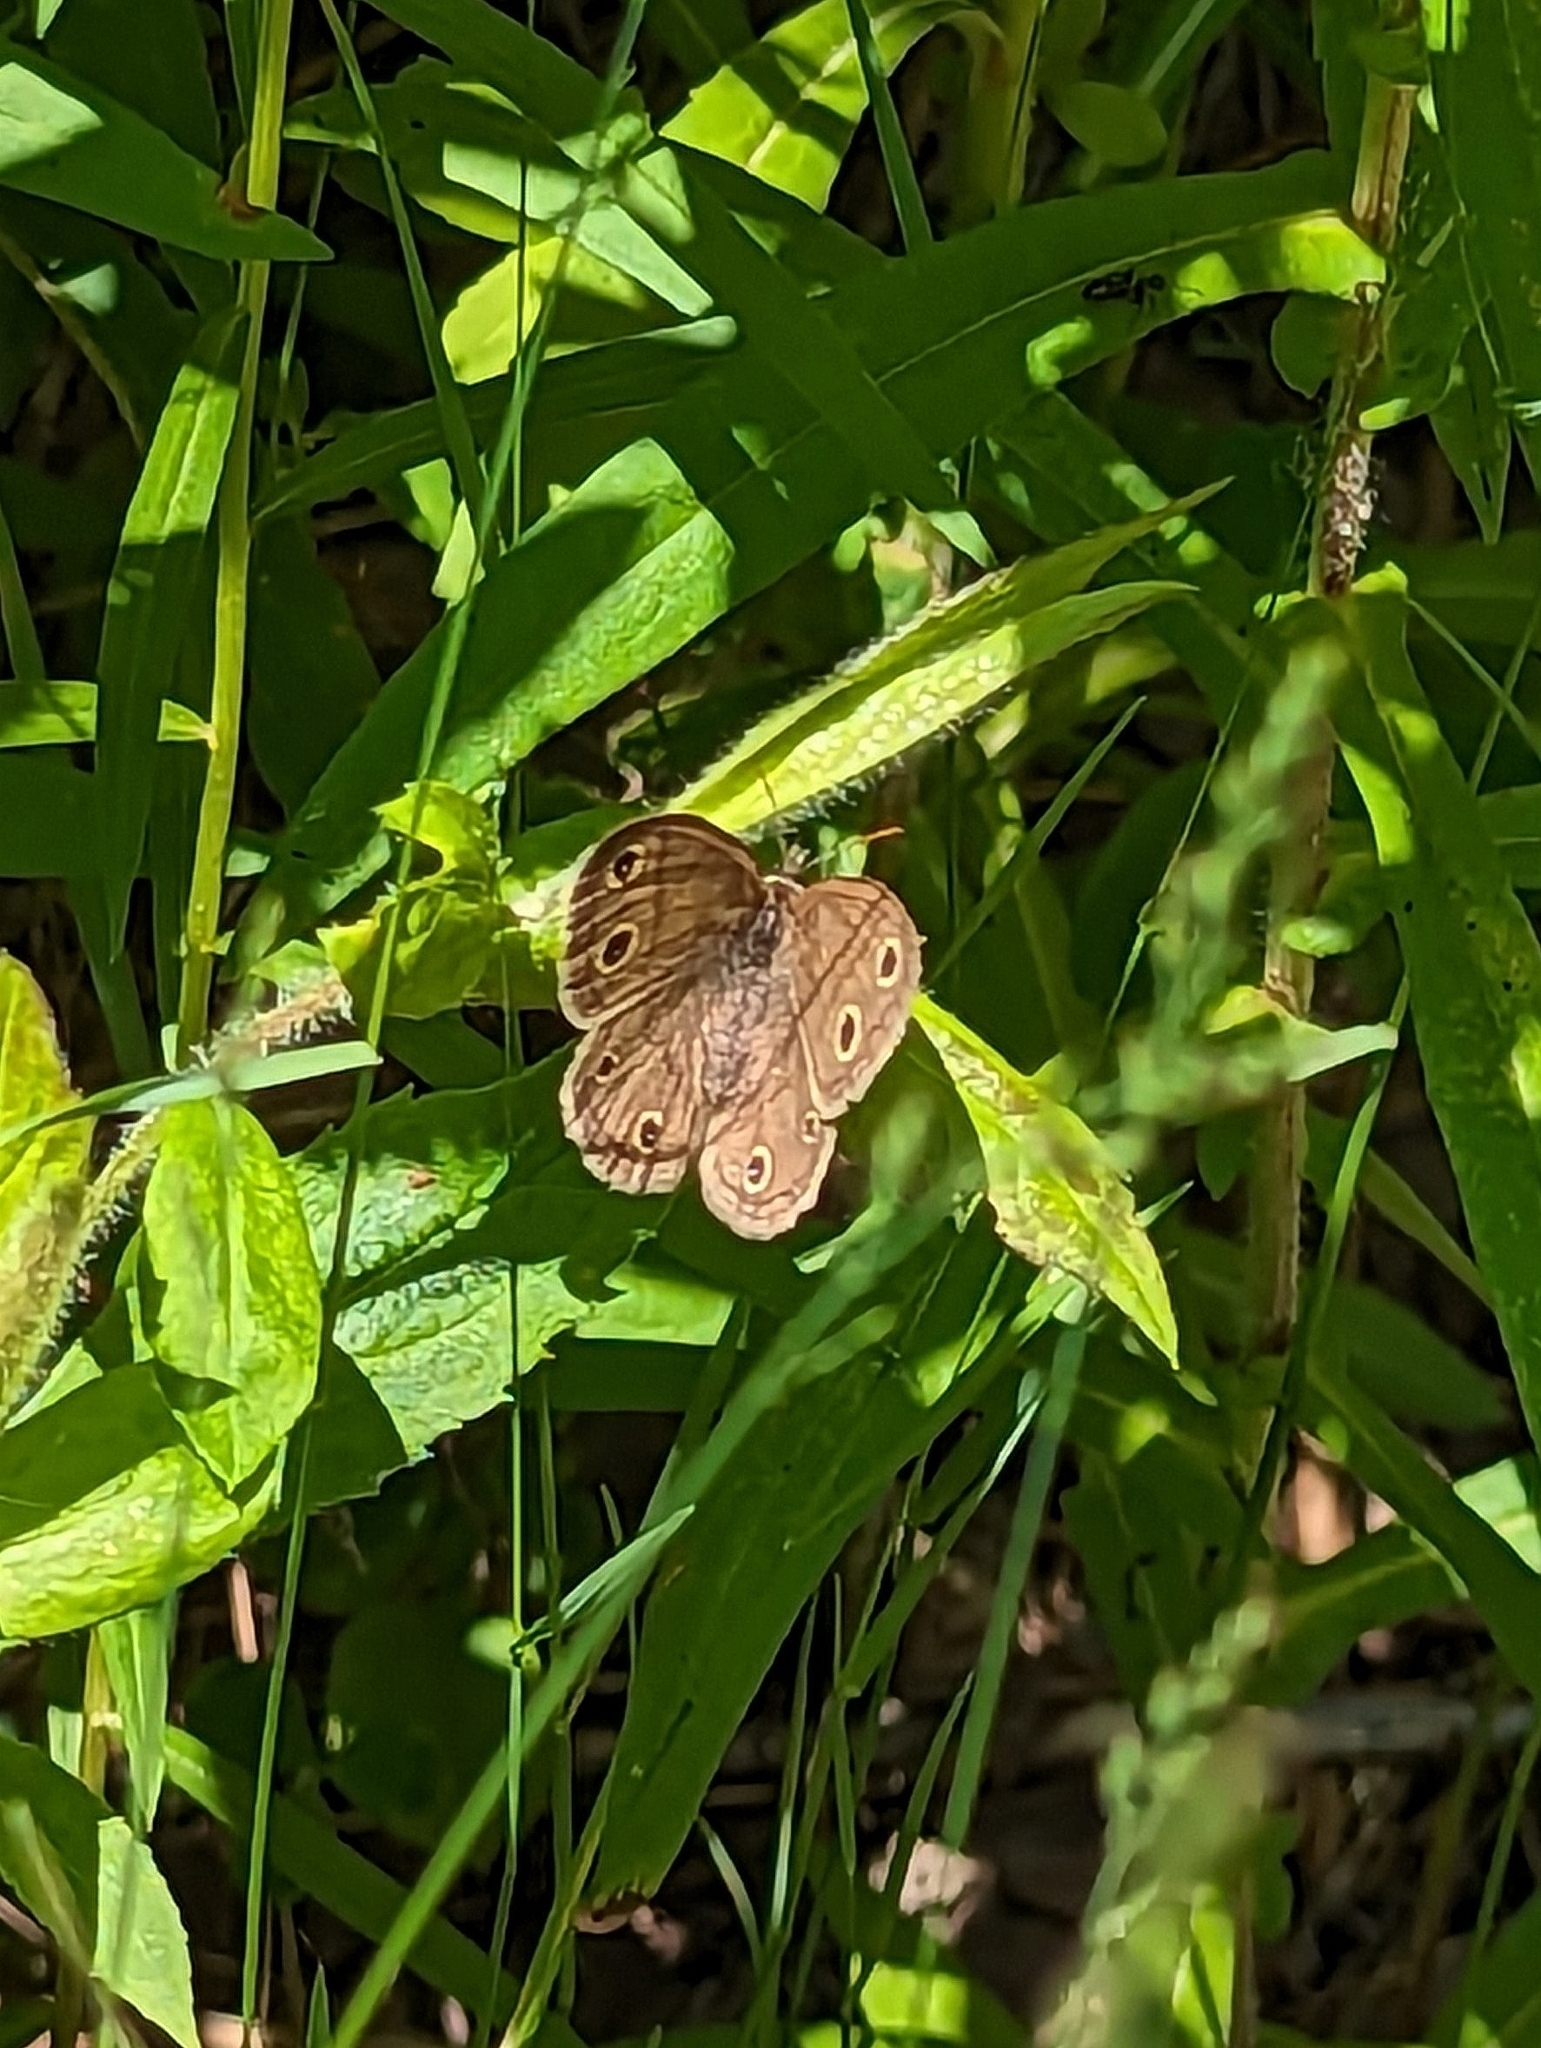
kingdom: Animalia
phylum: Arthropoda
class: Insecta
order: Lepidoptera
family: Nymphalidae
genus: Euptychia
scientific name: Euptychia cymela
